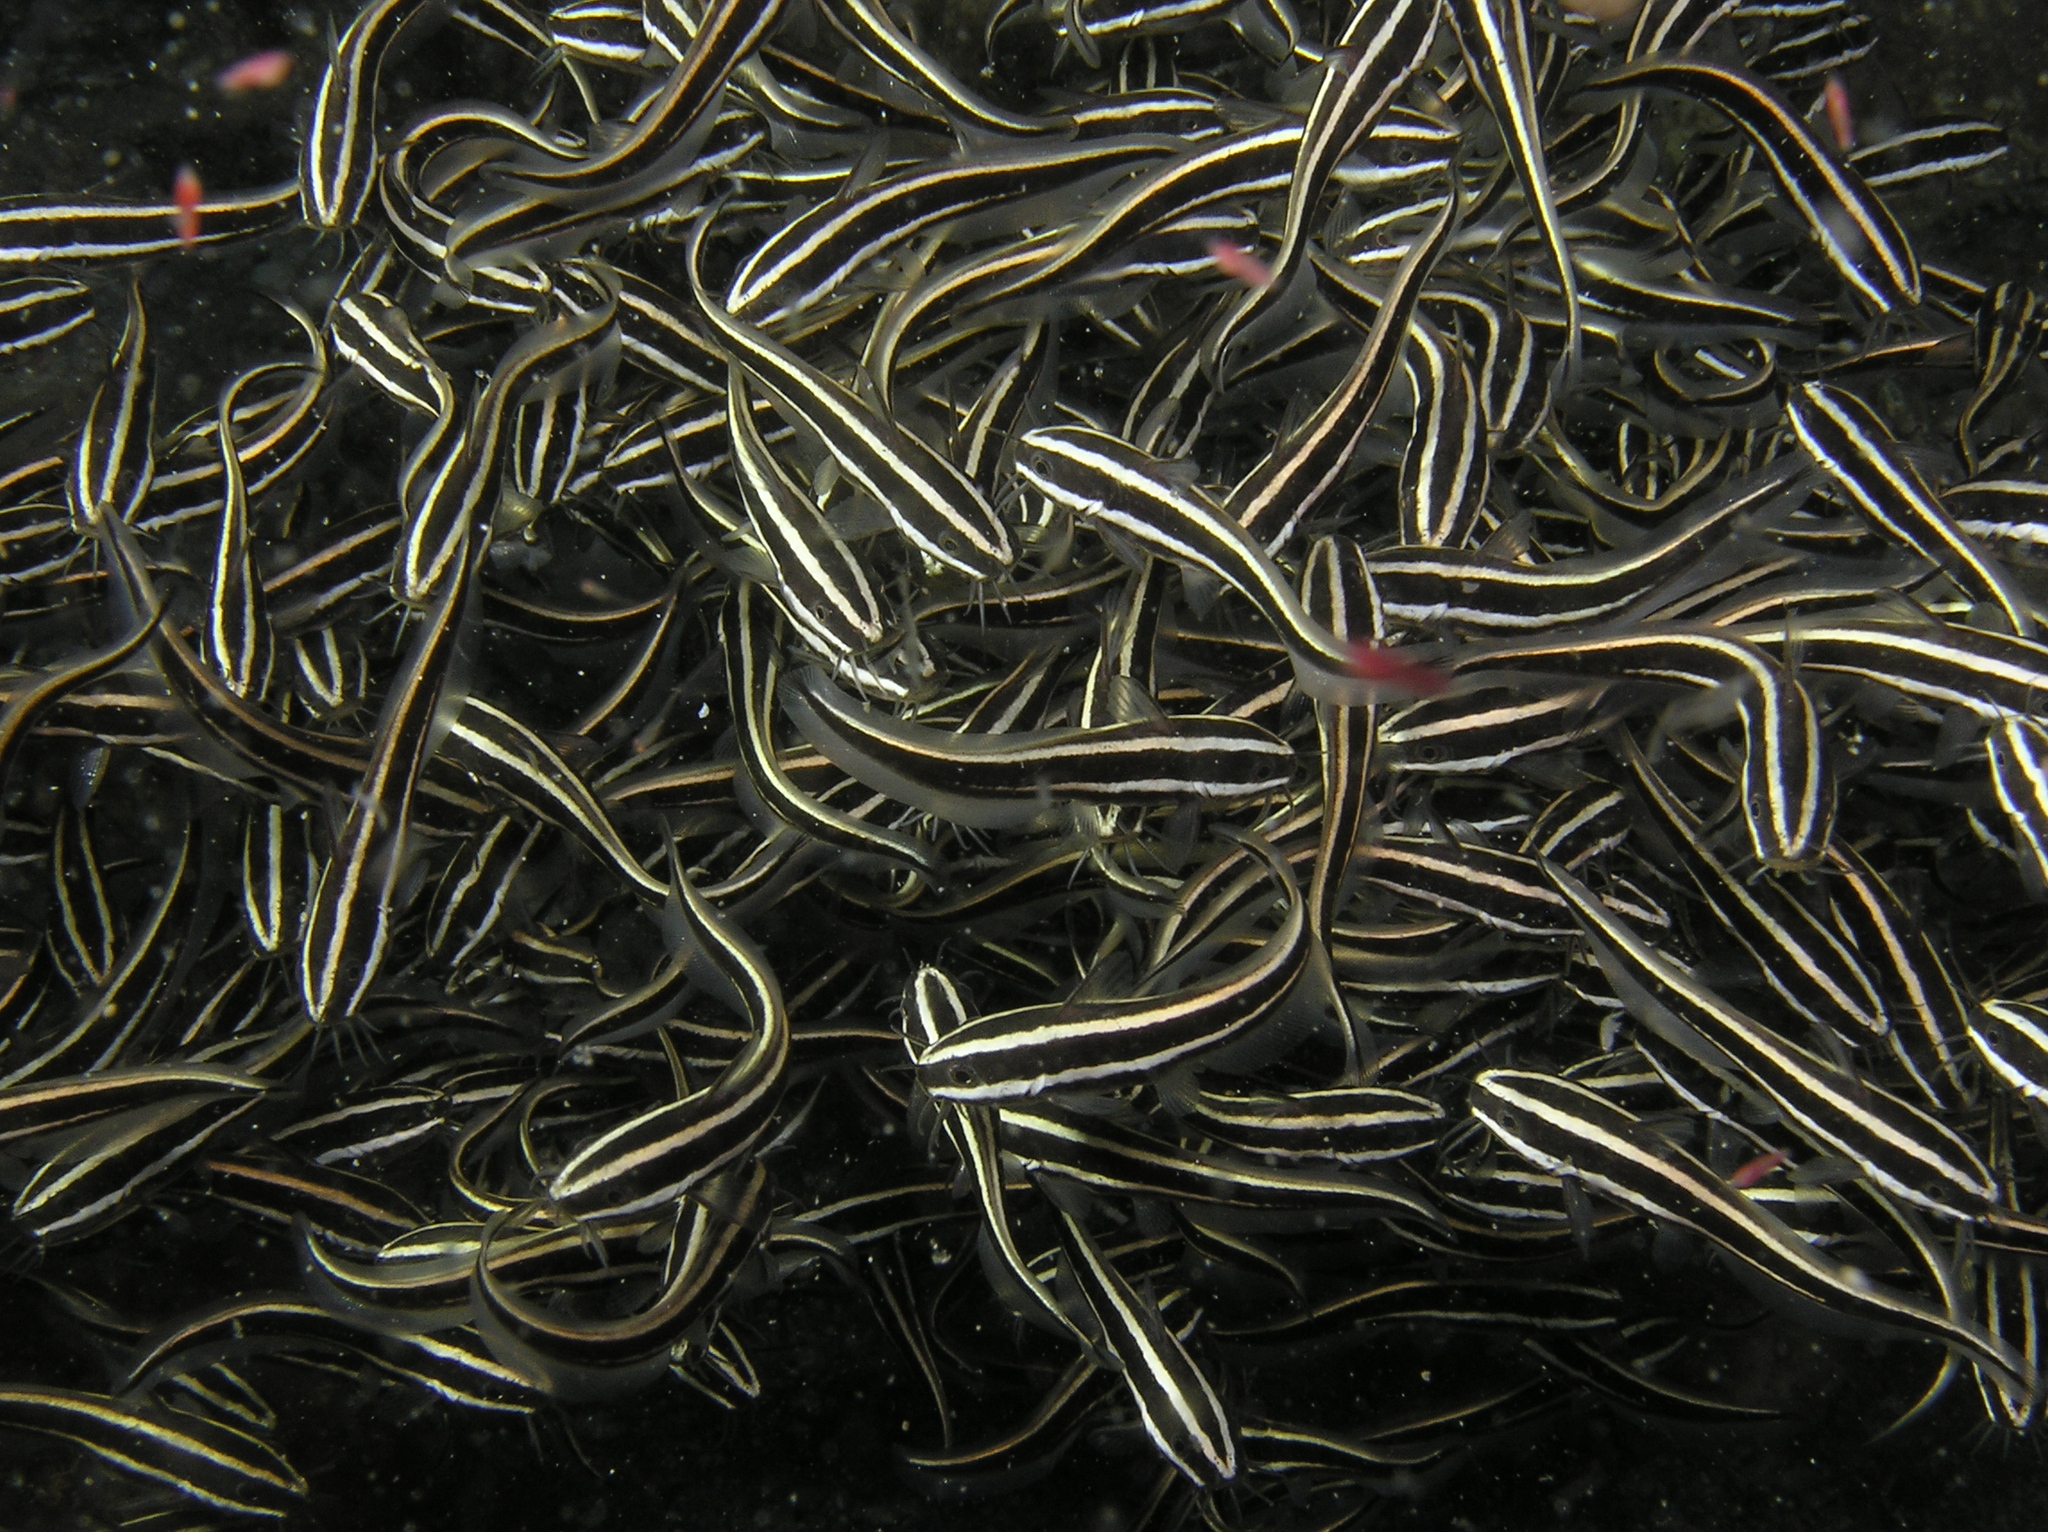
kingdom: Animalia
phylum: Chordata
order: Siluriformes
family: Plotosidae
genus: Plotosus
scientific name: Plotosus lineatus
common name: Striped eel catfish
